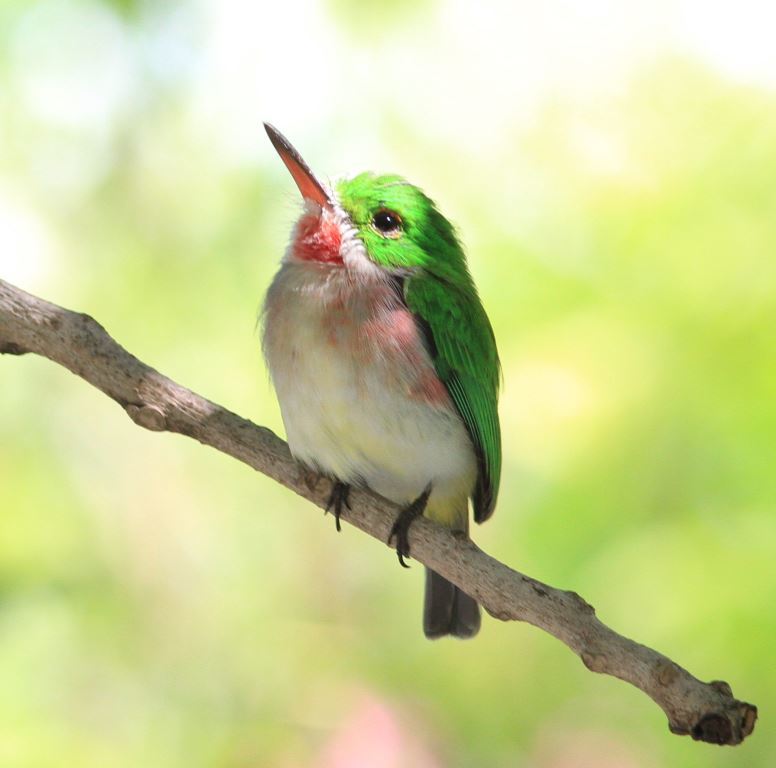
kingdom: Animalia
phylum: Chordata
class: Aves
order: Coraciiformes
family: Todidae
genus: Todus
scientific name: Todus subulatus
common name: Broad-billed tody
